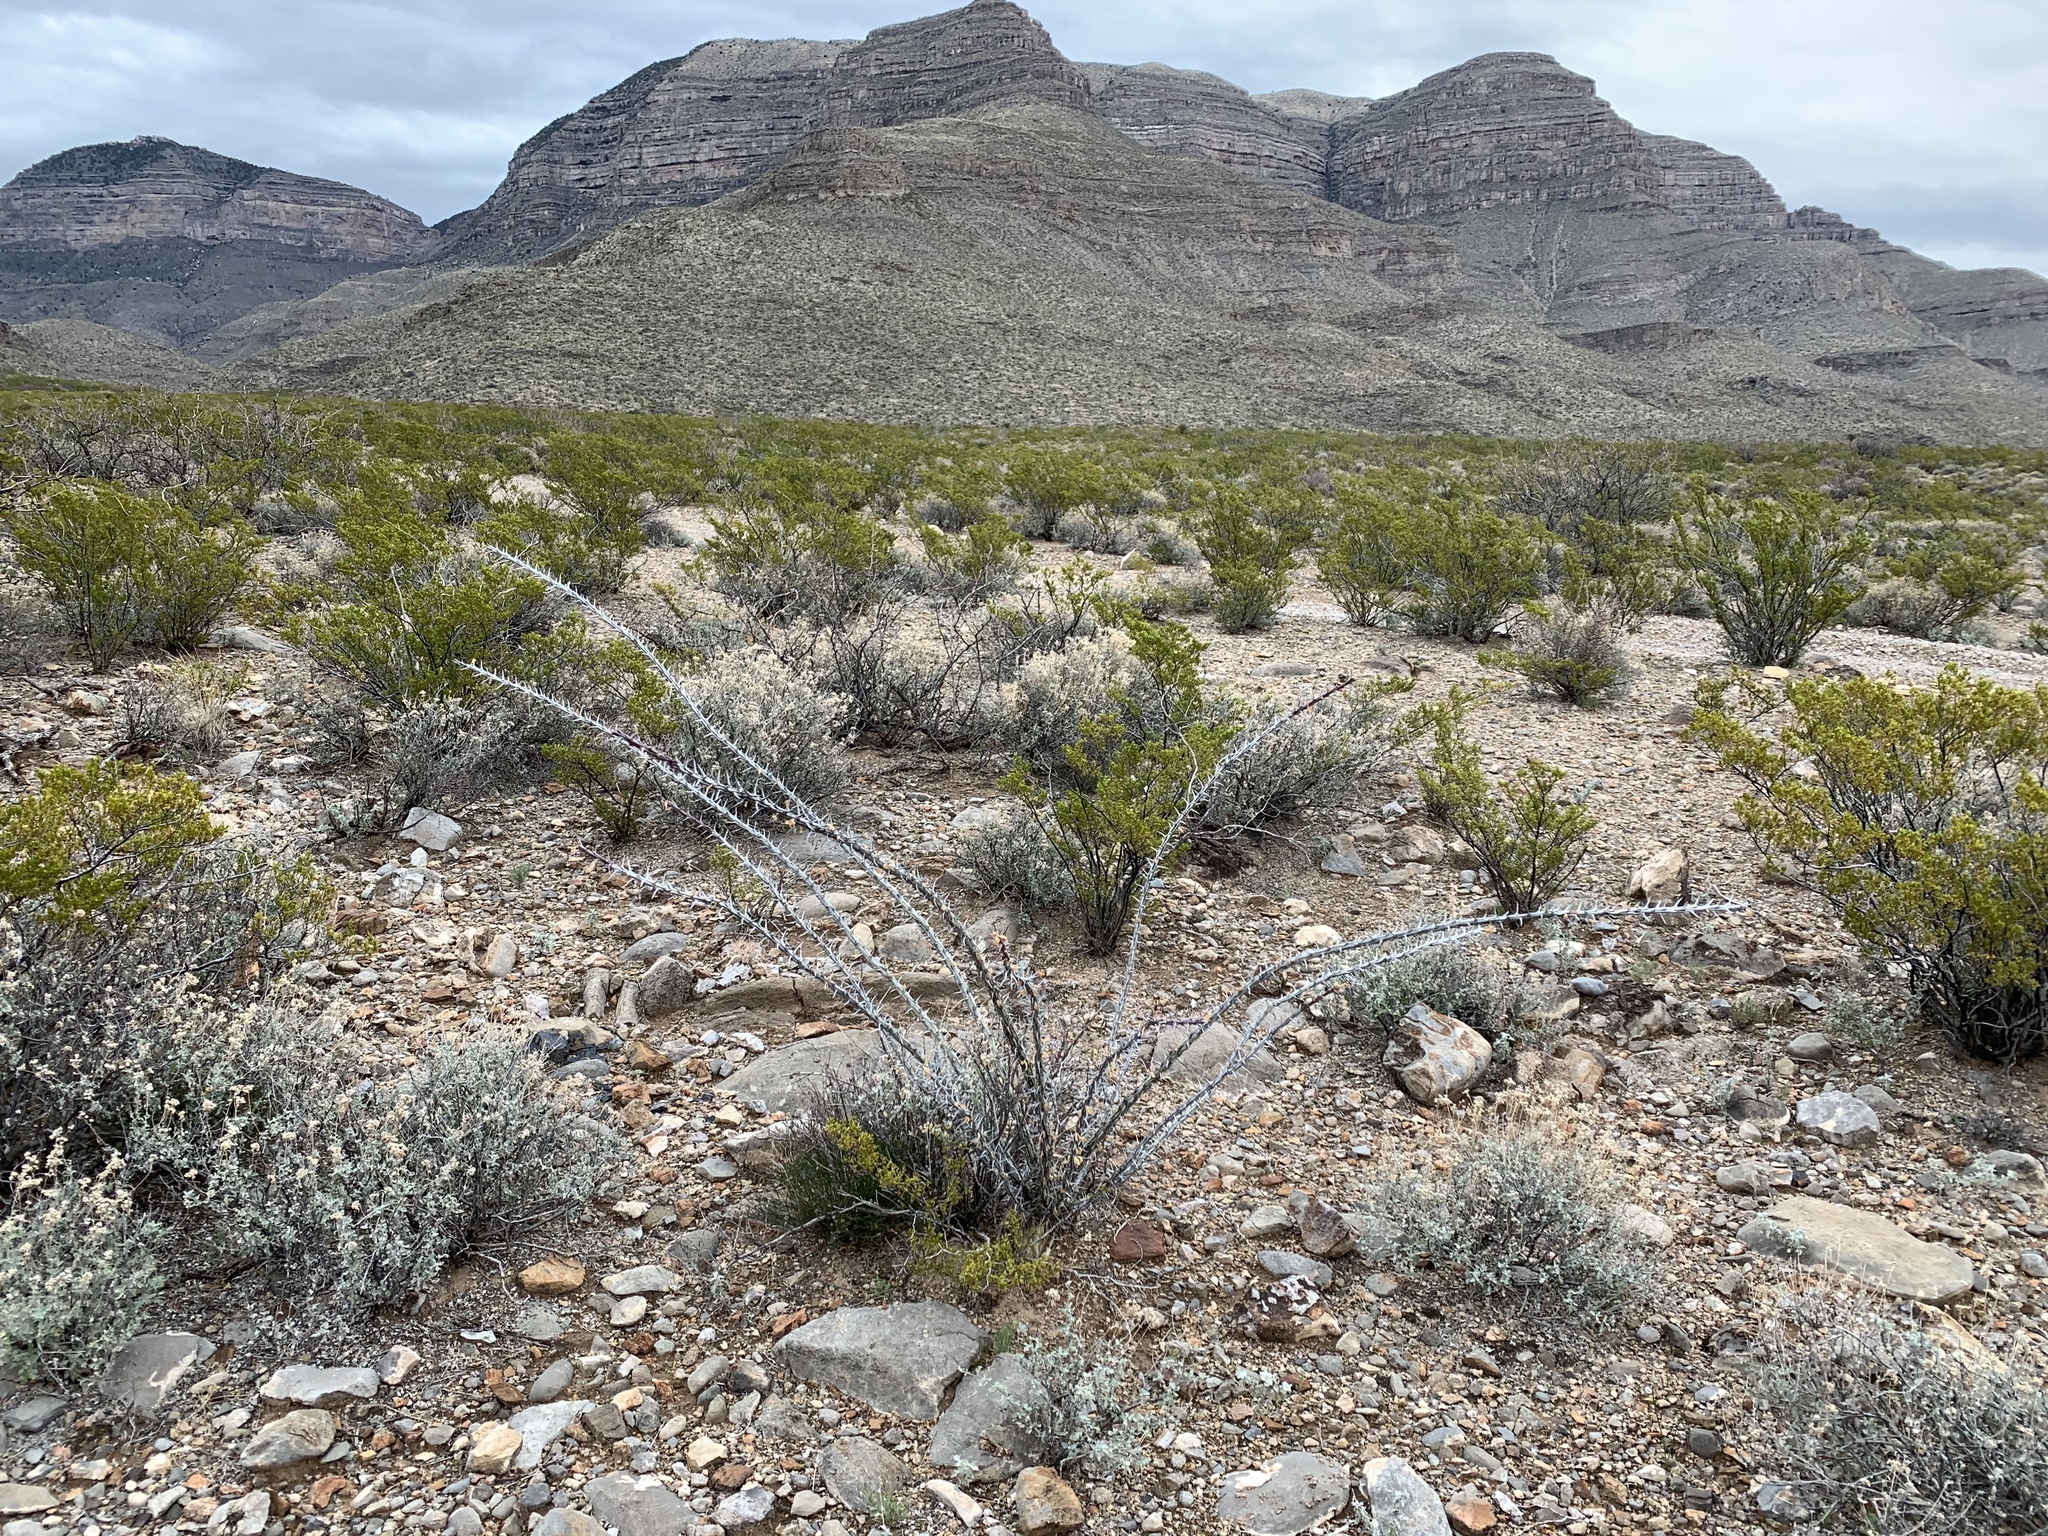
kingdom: Plantae
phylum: Tracheophyta
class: Magnoliopsida
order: Ericales
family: Fouquieriaceae
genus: Fouquieria
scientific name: Fouquieria splendens
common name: Vine-cactus
